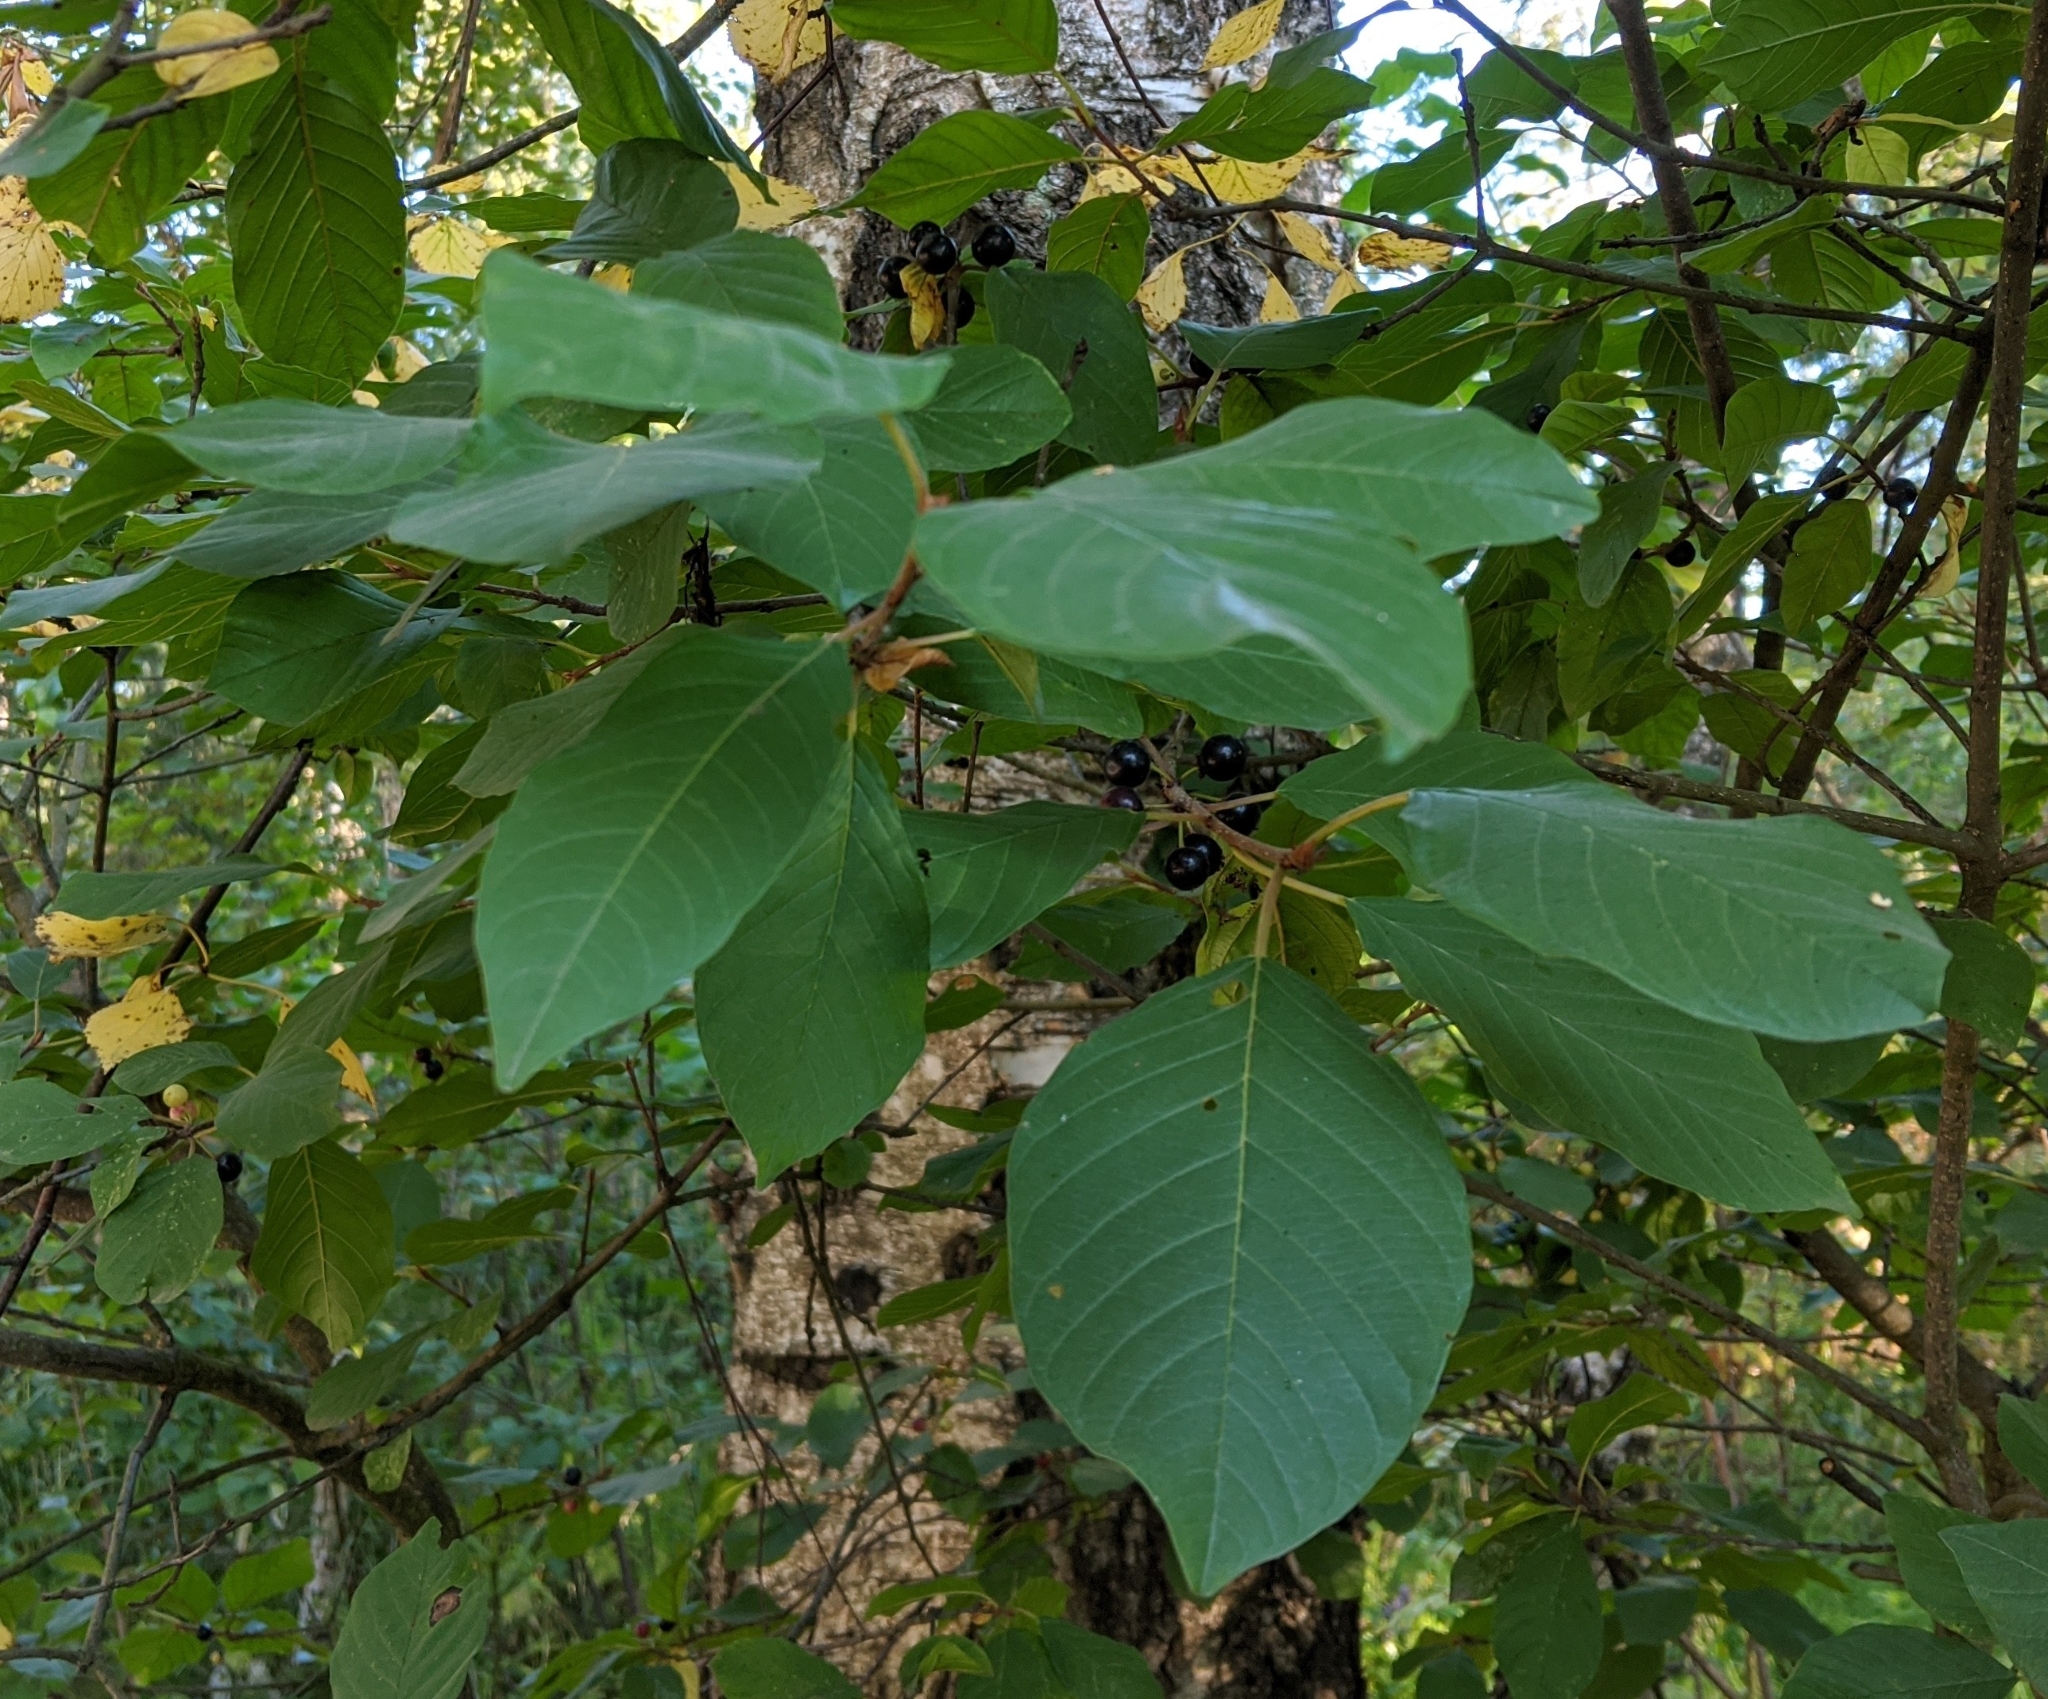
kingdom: Plantae
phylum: Tracheophyta
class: Magnoliopsida
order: Rosales
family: Rhamnaceae
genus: Frangula
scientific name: Frangula alnus
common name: Alder buckthorn
